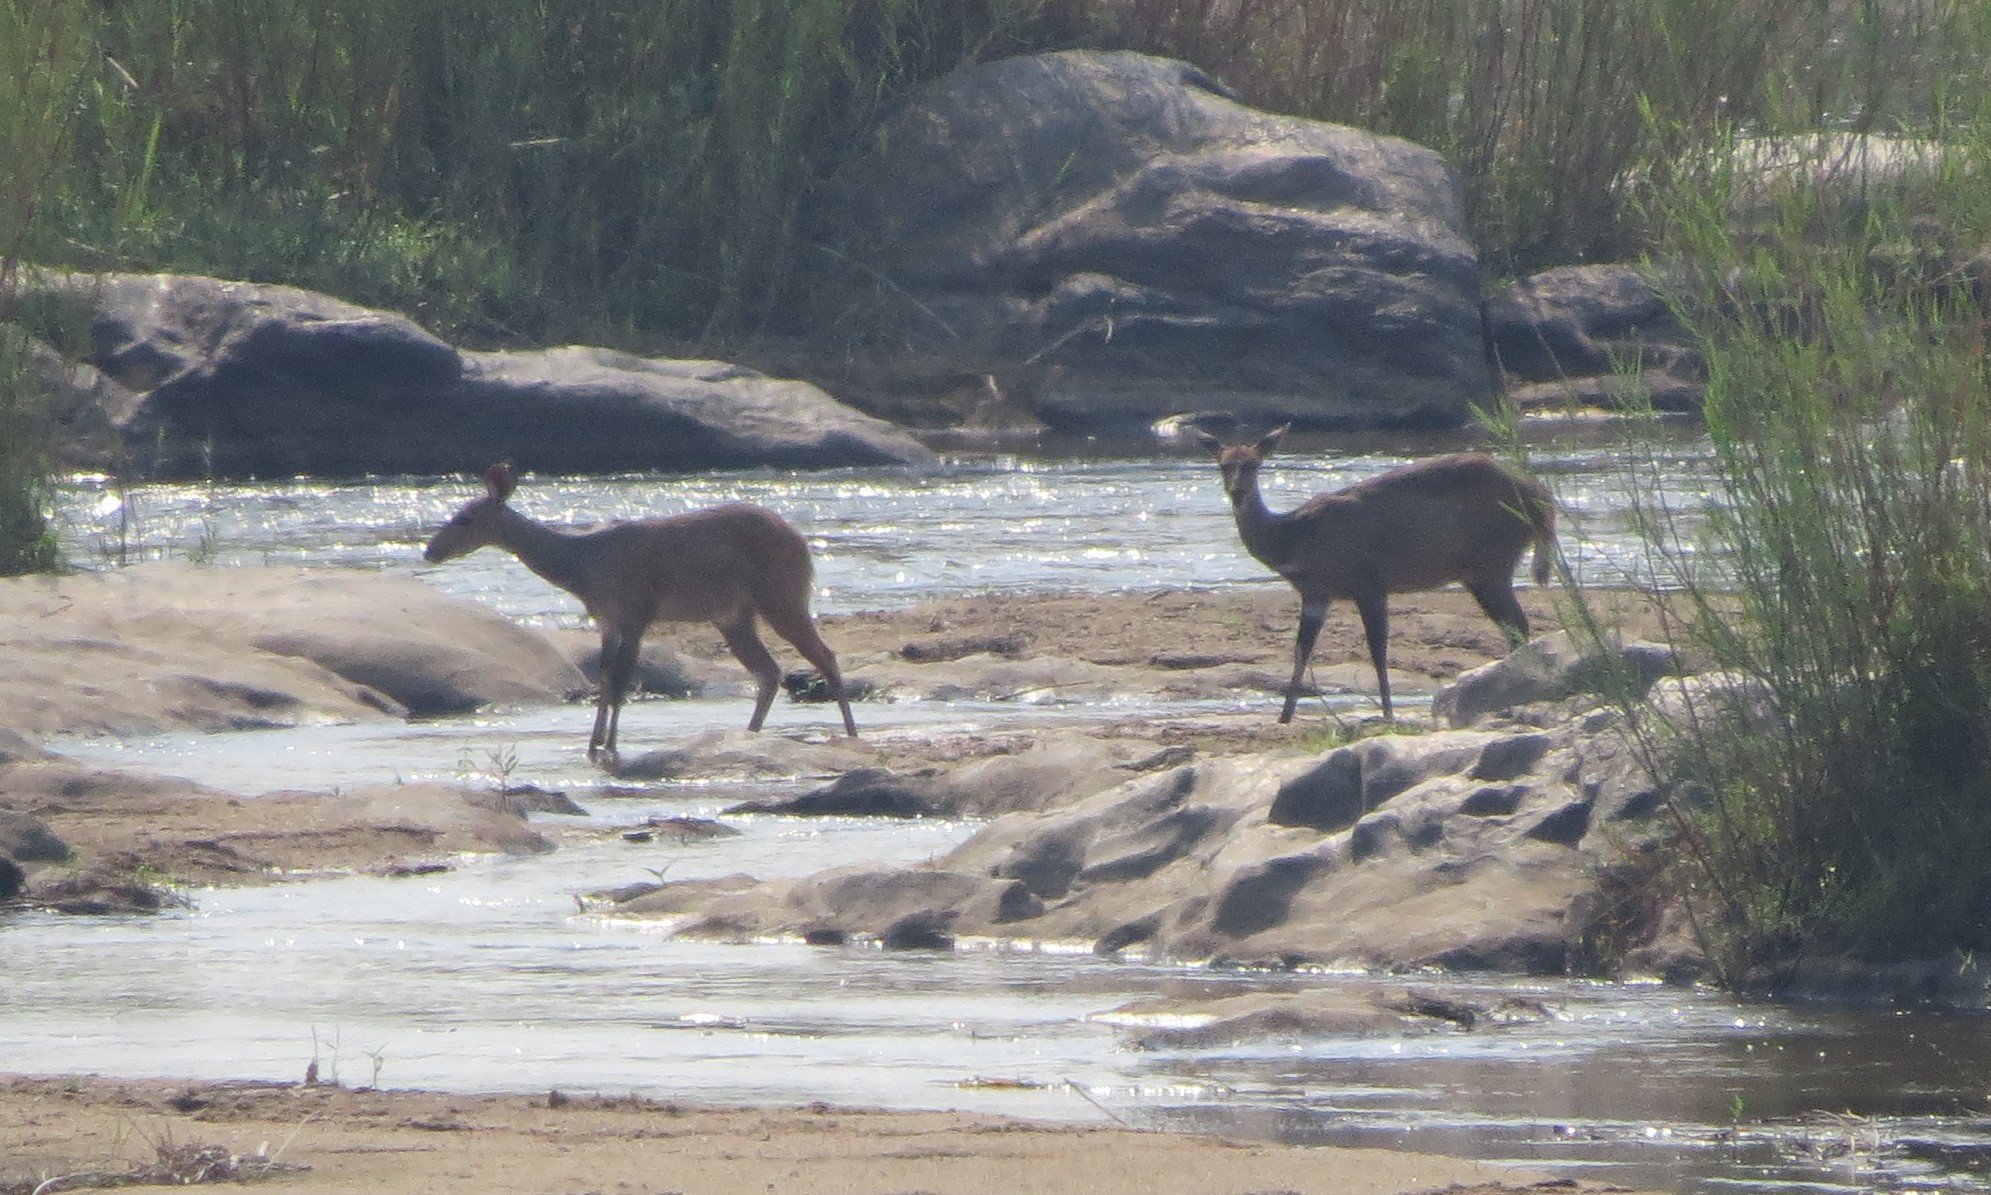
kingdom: Animalia
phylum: Chordata
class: Mammalia
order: Artiodactyla
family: Bovidae
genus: Tragelaphus
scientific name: Tragelaphus scriptus
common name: Bushbuck
